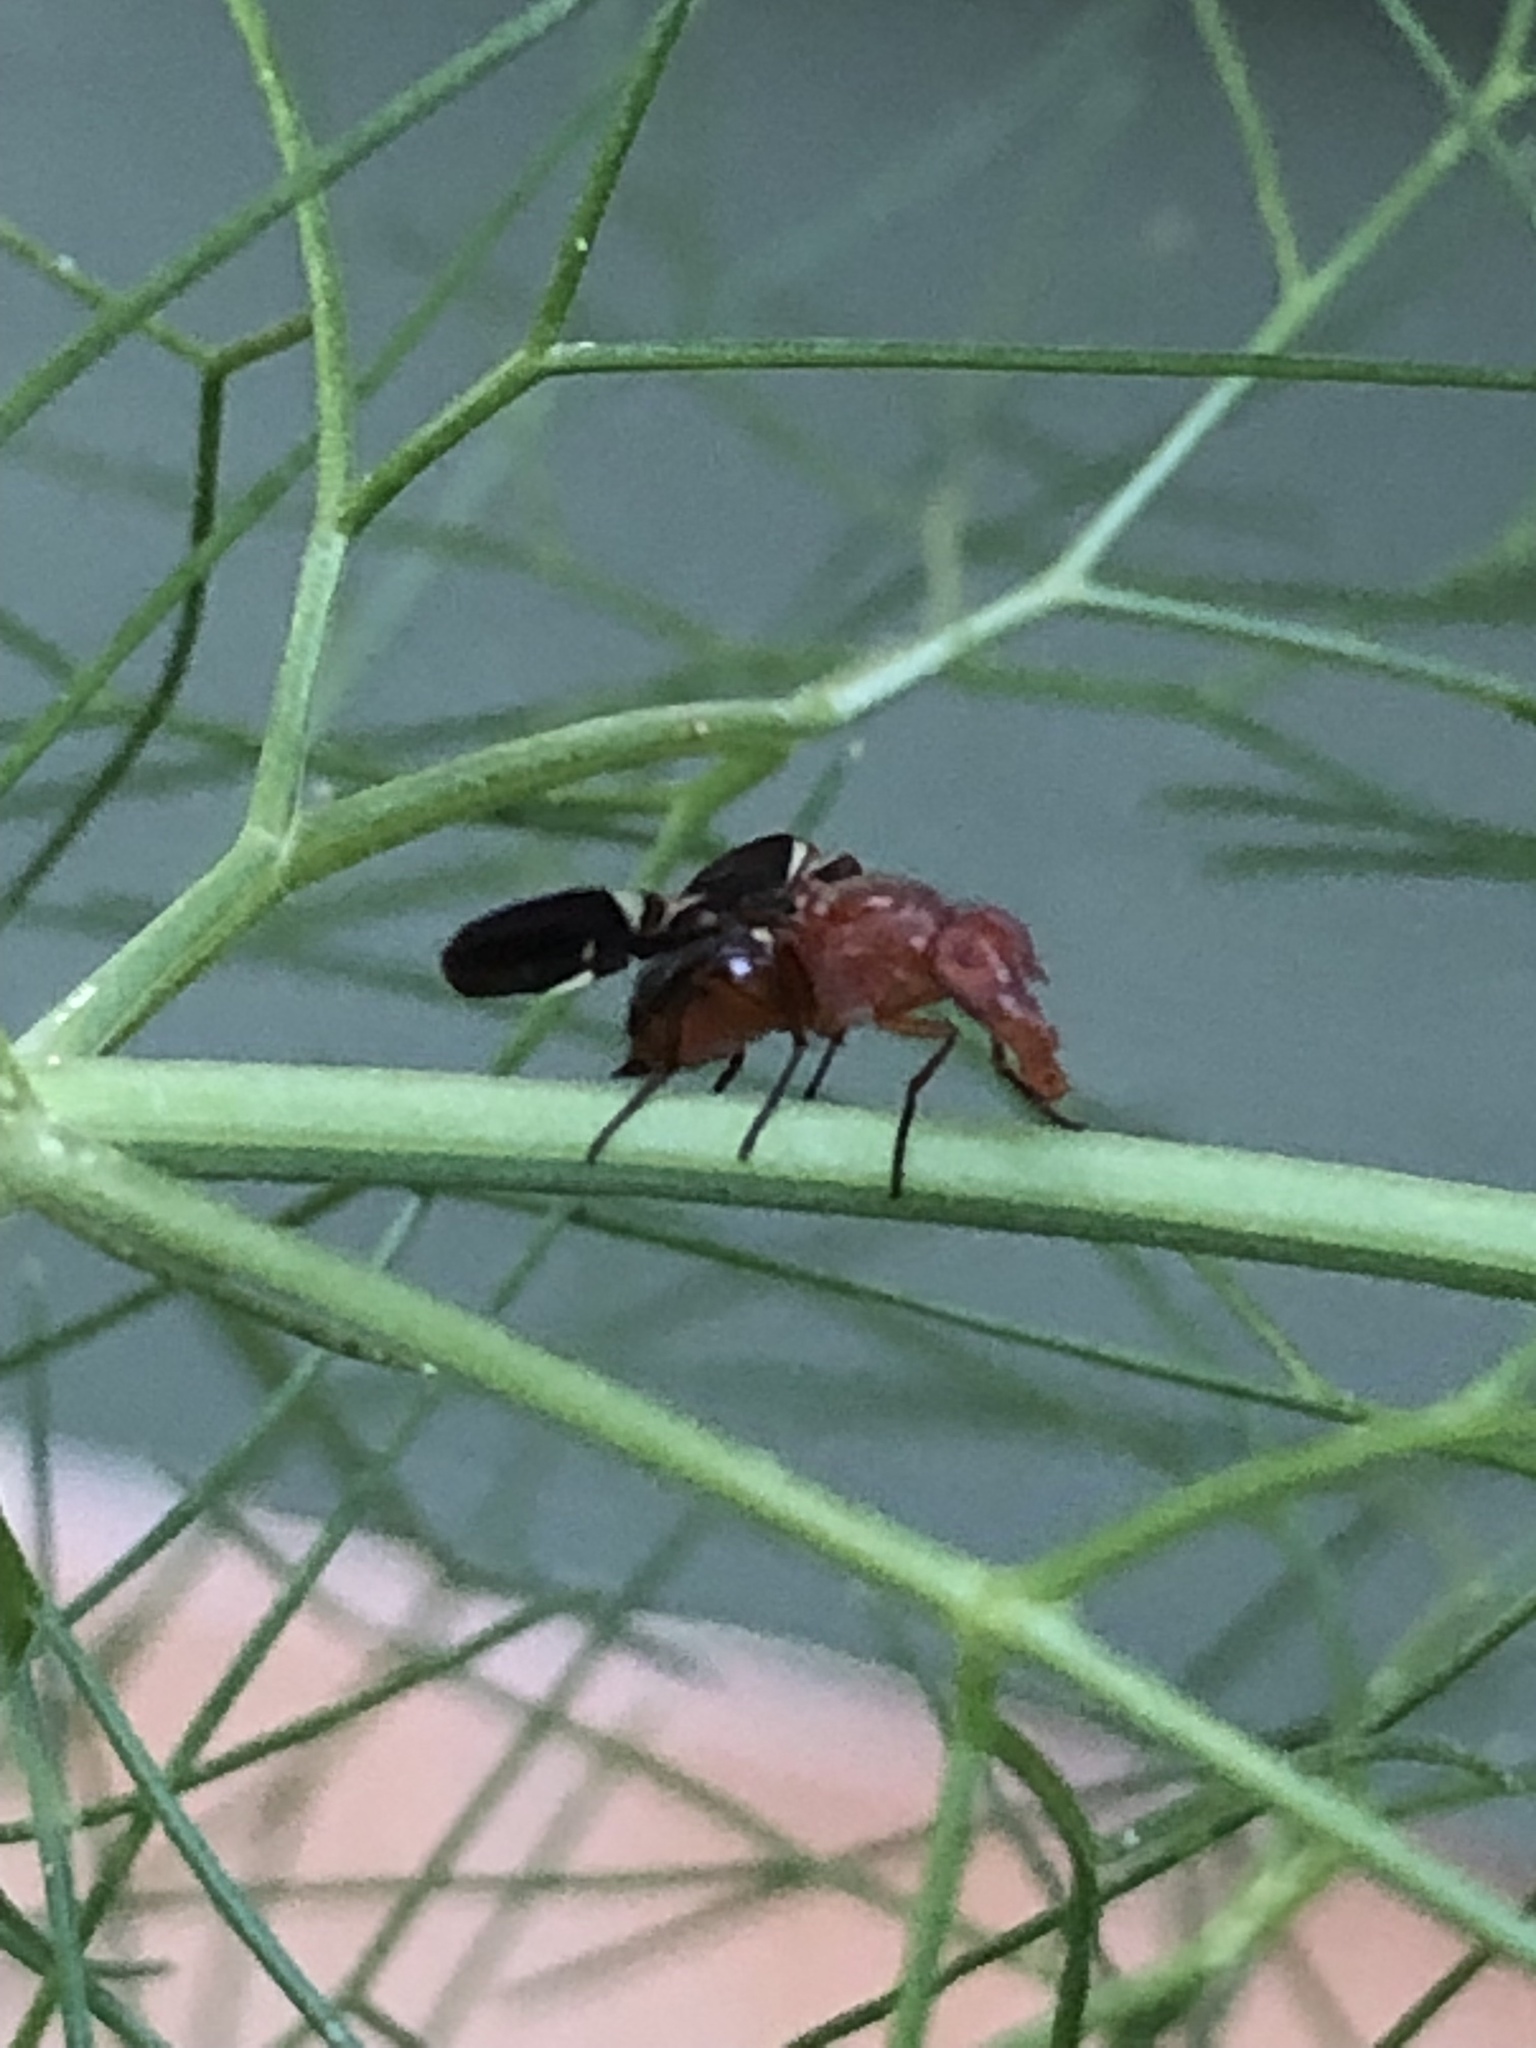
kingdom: Animalia
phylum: Arthropoda
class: Insecta
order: Diptera
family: Ulidiidae
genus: Delphinia
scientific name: Delphinia picta
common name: Common picture-winged fly
